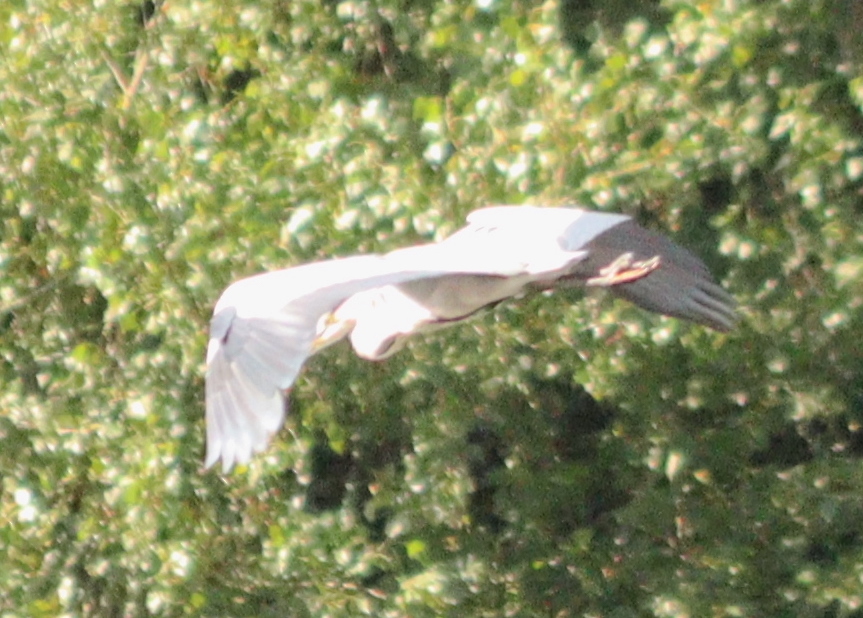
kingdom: Animalia
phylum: Chordata
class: Aves
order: Pelecaniformes
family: Ardeidae
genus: Ardea
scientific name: Ardea cinerea
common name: Grey heron
